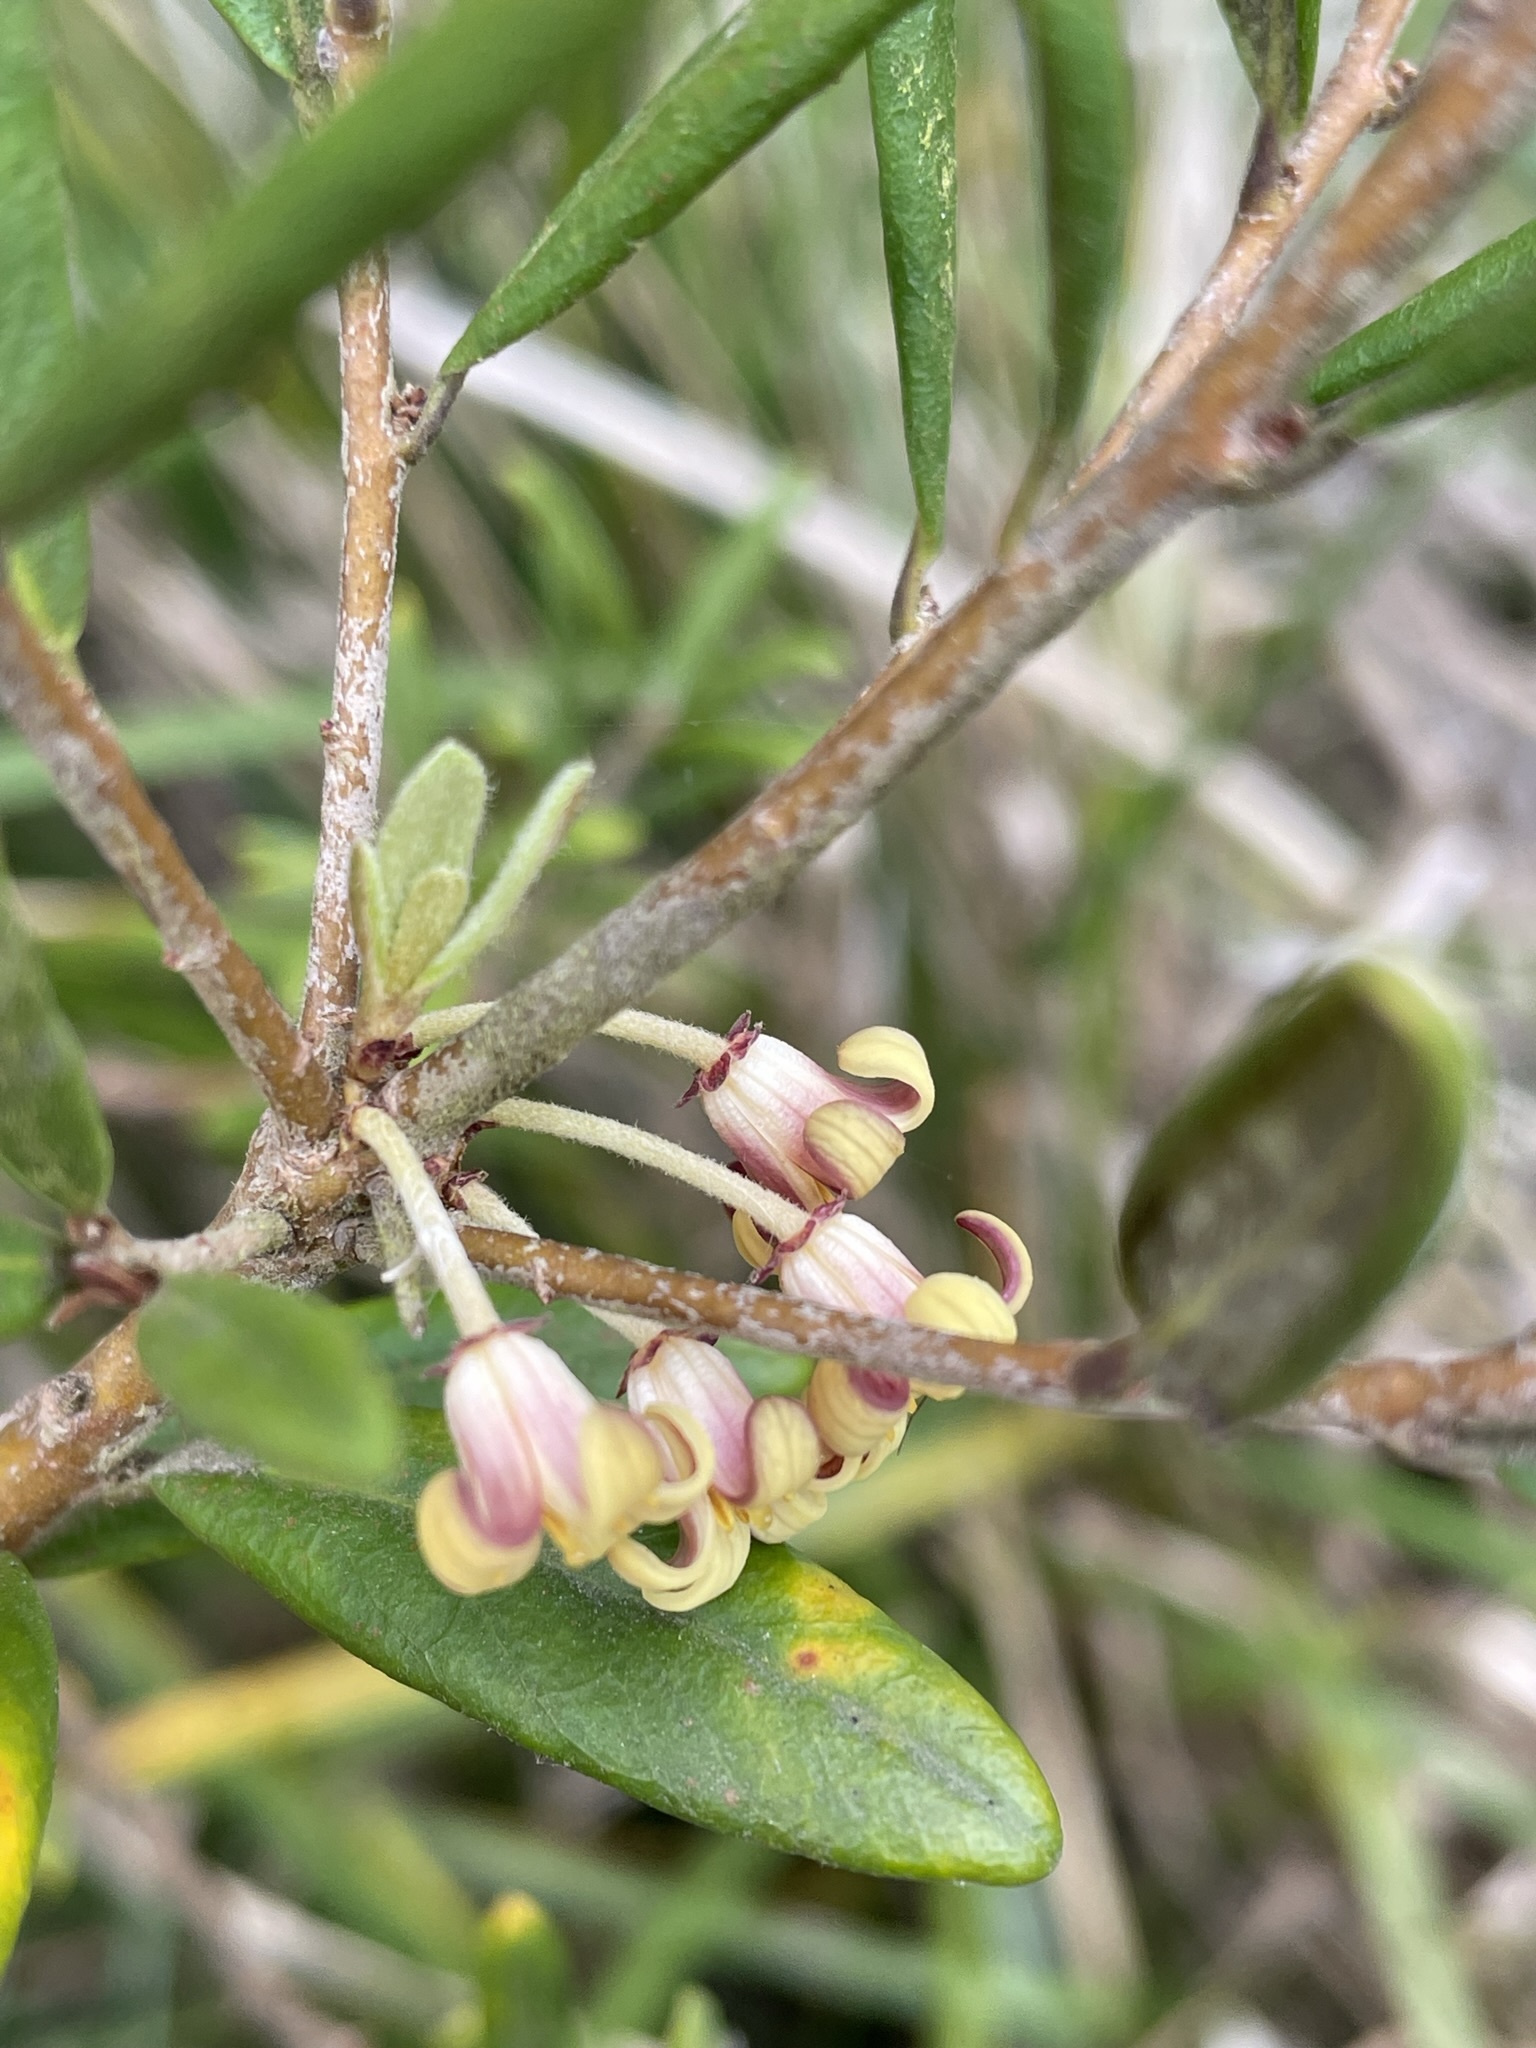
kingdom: Plantae
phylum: Tracheophyta
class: Magnoliopsida
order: Apiales
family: Pittosporaceae
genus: Pittosporum
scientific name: Pittosporum bicolor
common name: Tallowwood
